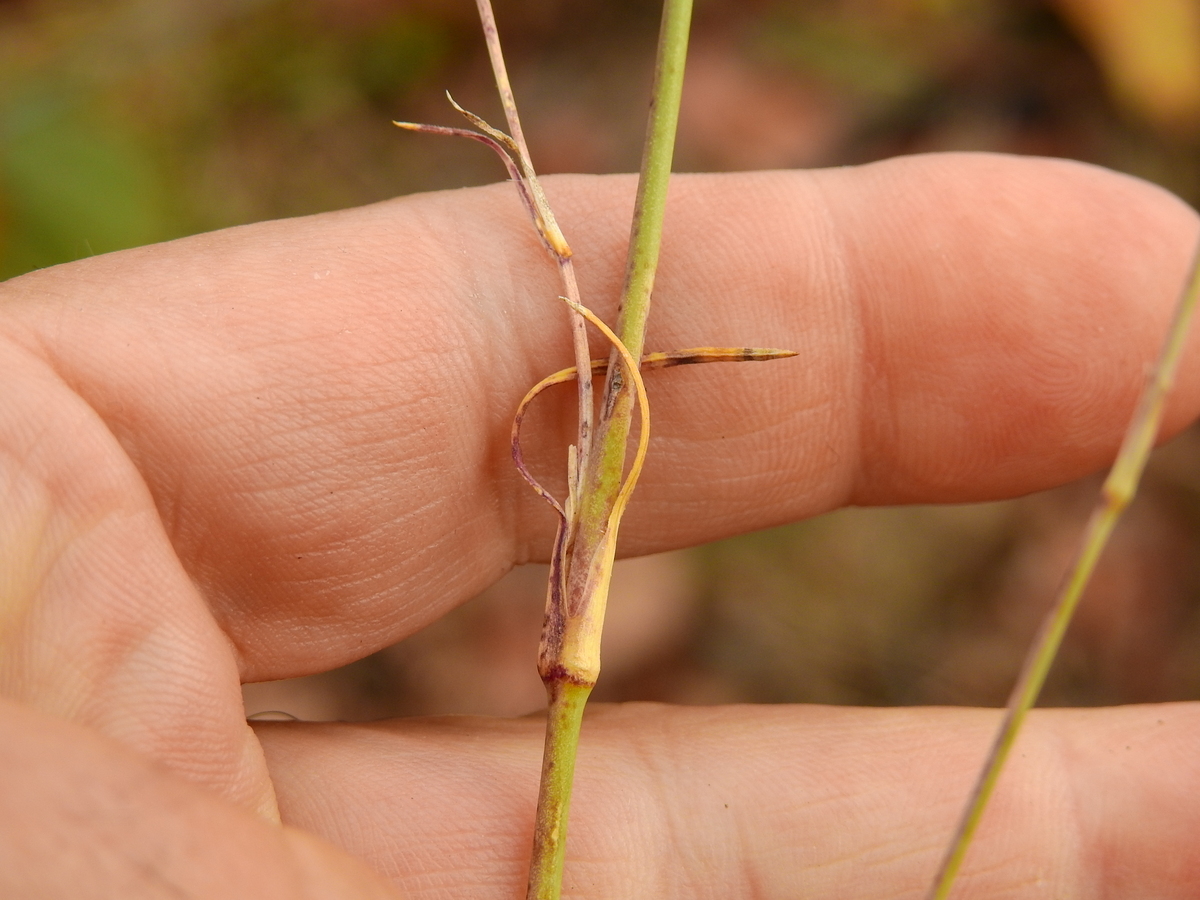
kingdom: Plantae
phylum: Tracheophyta
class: Magnoliopsida
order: Caryophyllales
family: Caryophyllaceae
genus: Petrorhagia
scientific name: Petrorhagia nanteuilii
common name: Proliferous pink
